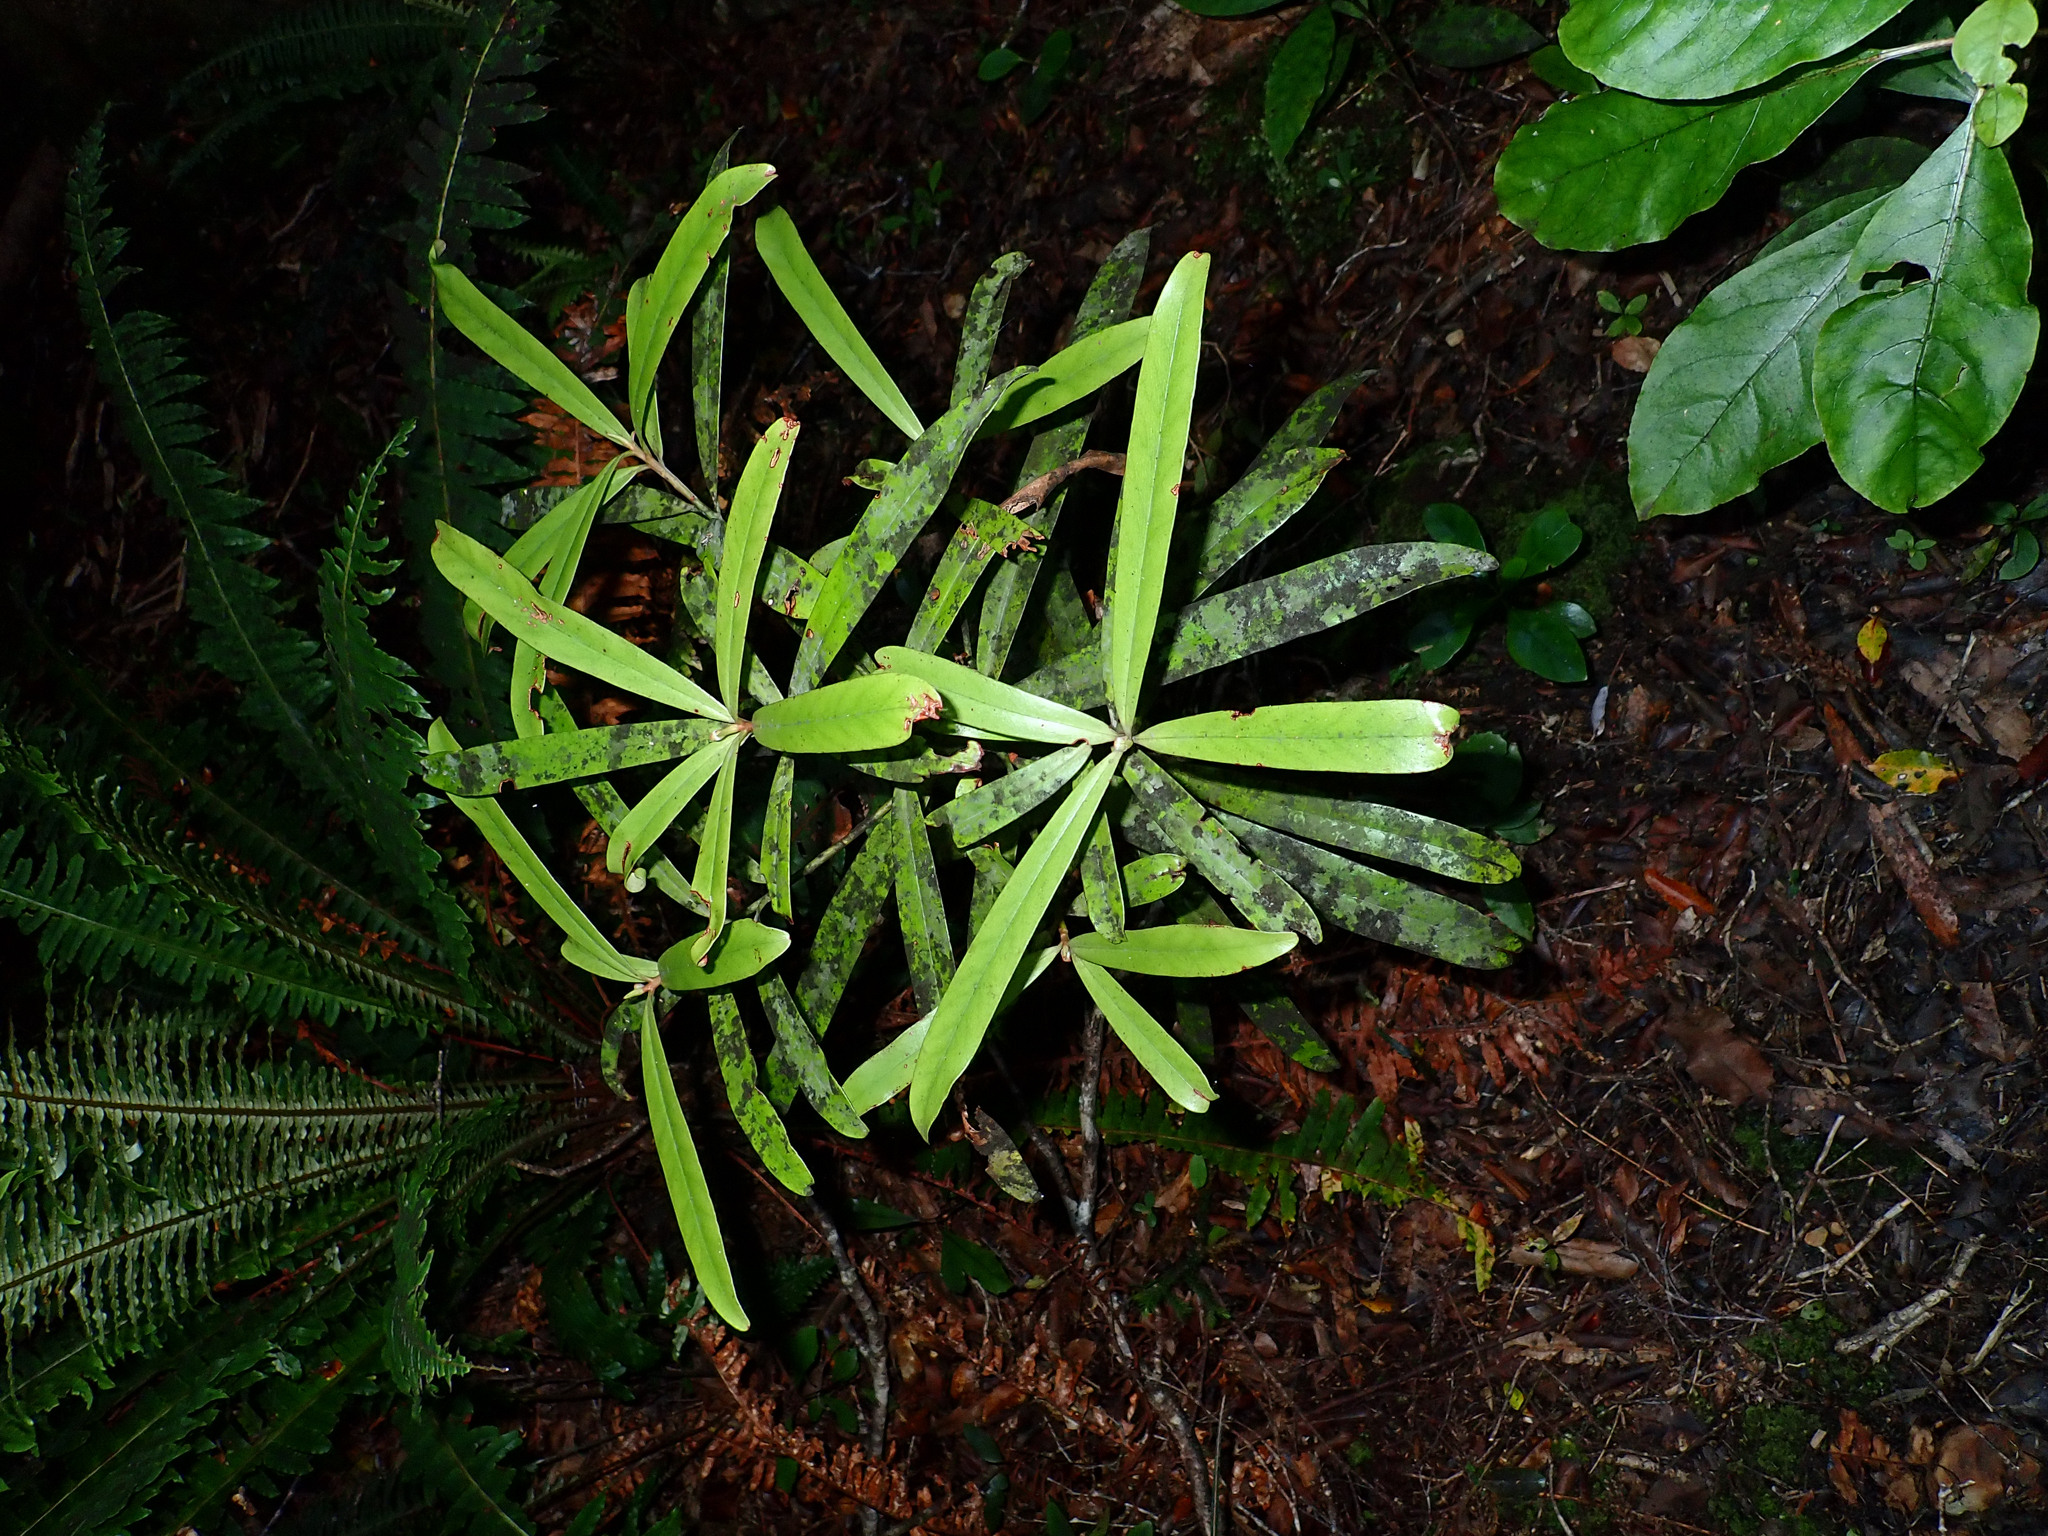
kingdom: Plantae
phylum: Tracheophyta
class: Magnoliopsida
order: Ericales
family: Primulaceae
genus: Myrsine
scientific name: Myrsine salicina
